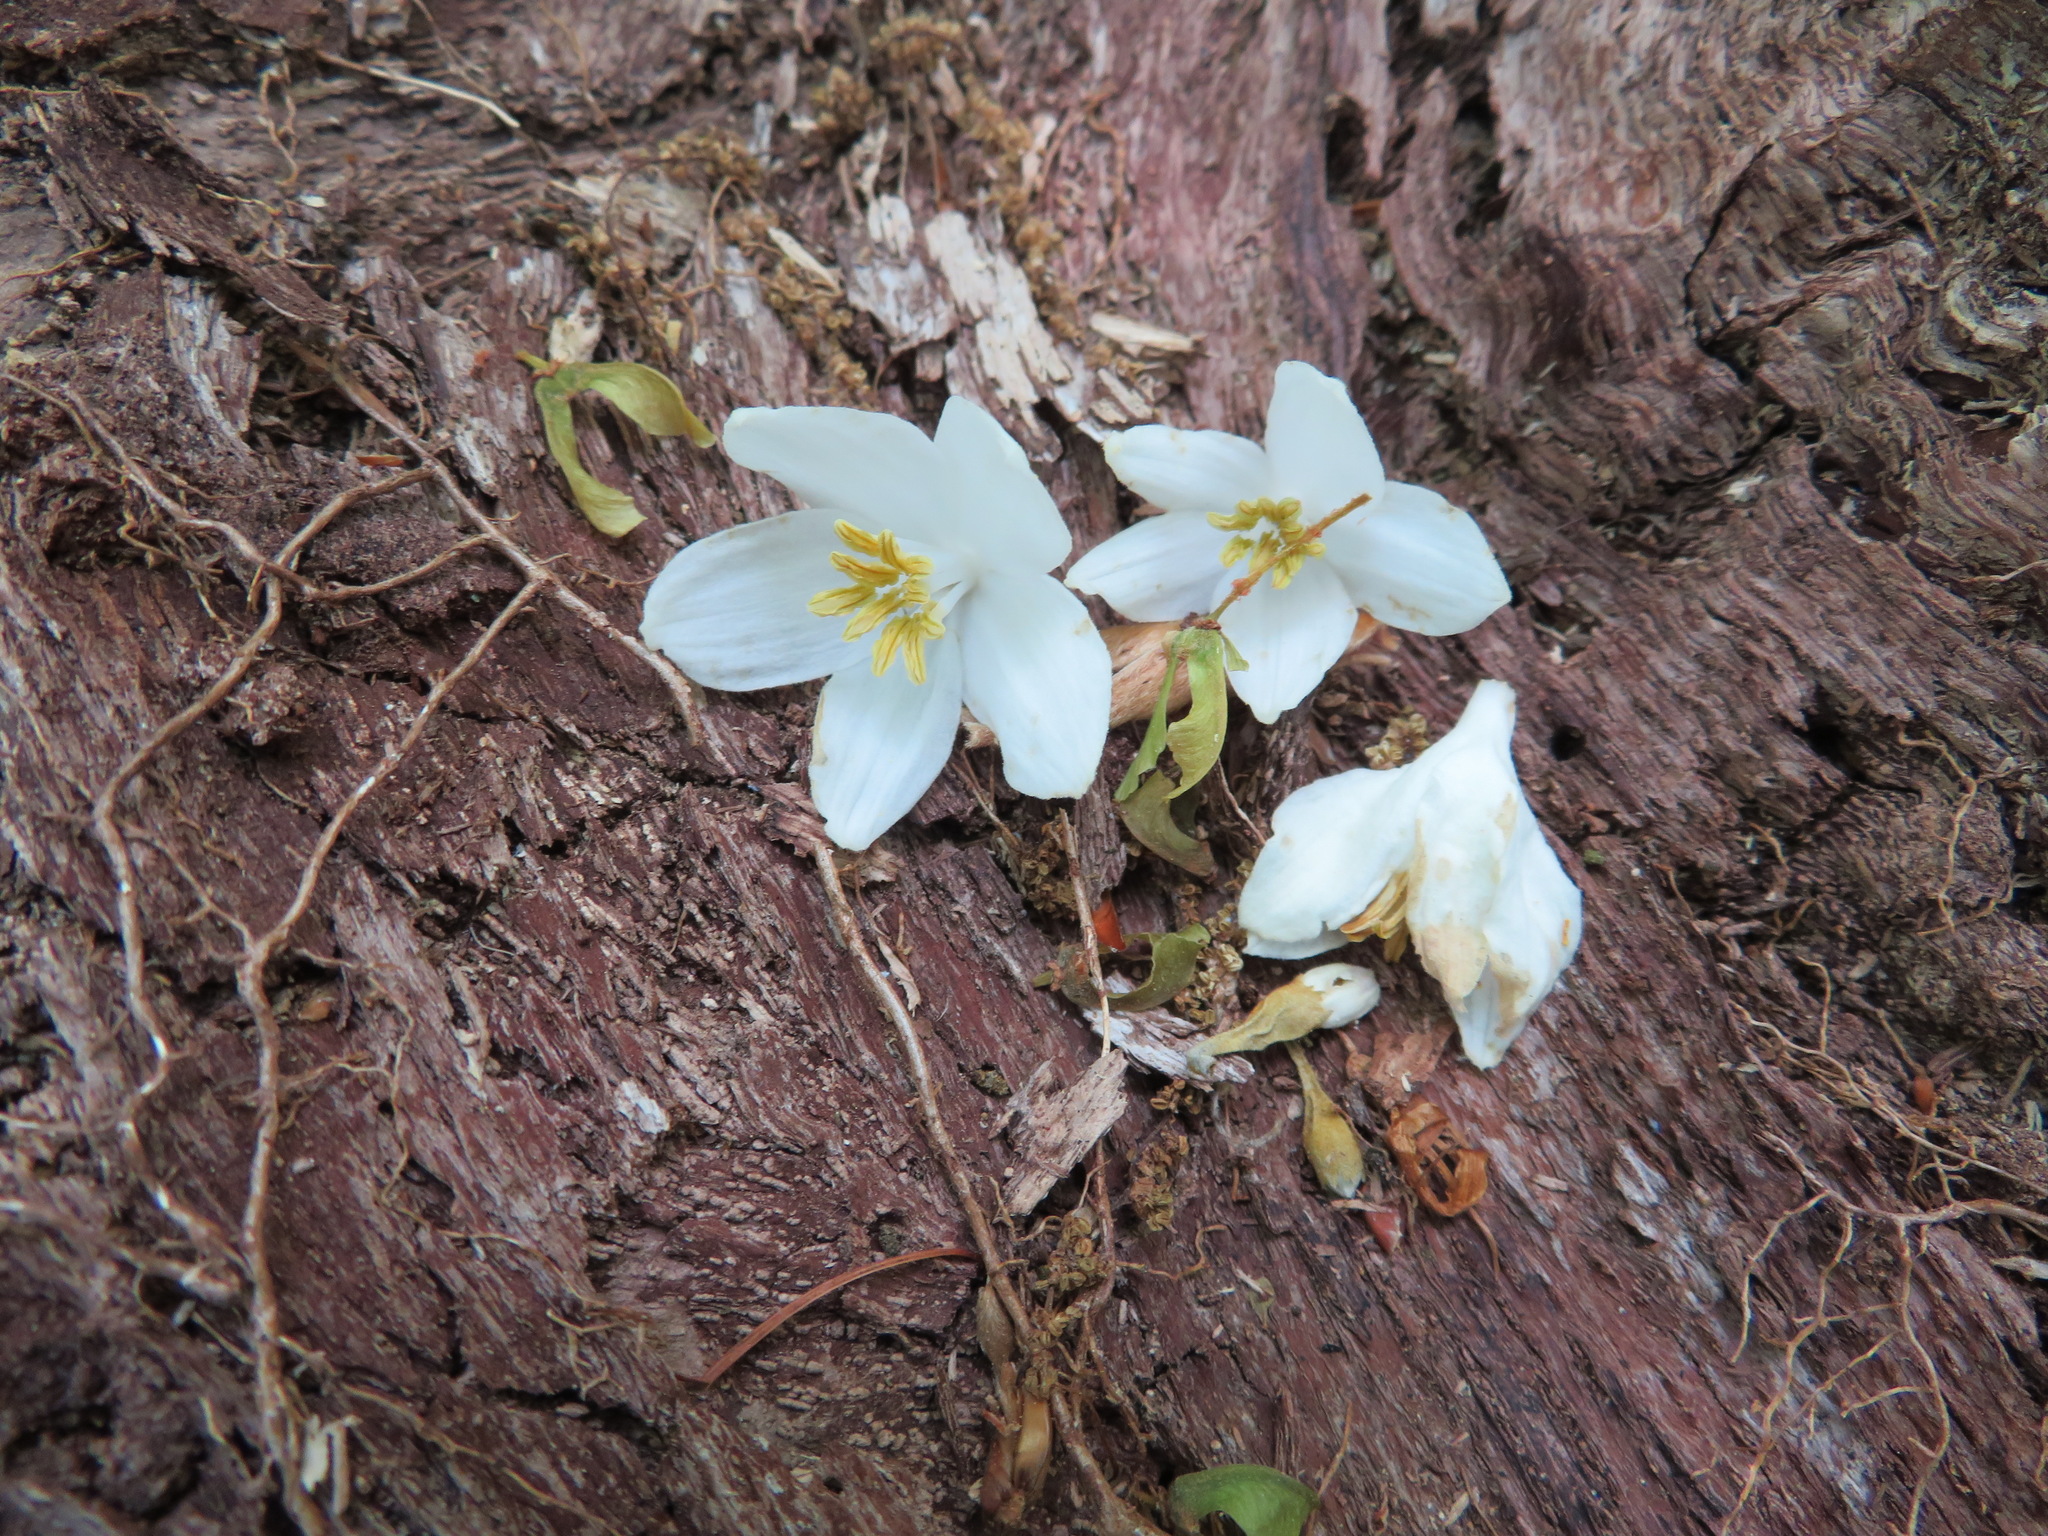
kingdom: Plantae
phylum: Tracheophyta
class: Magnoliopsida
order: Ericales
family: Styracaceae
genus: Styrax
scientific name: Styrax obassia
